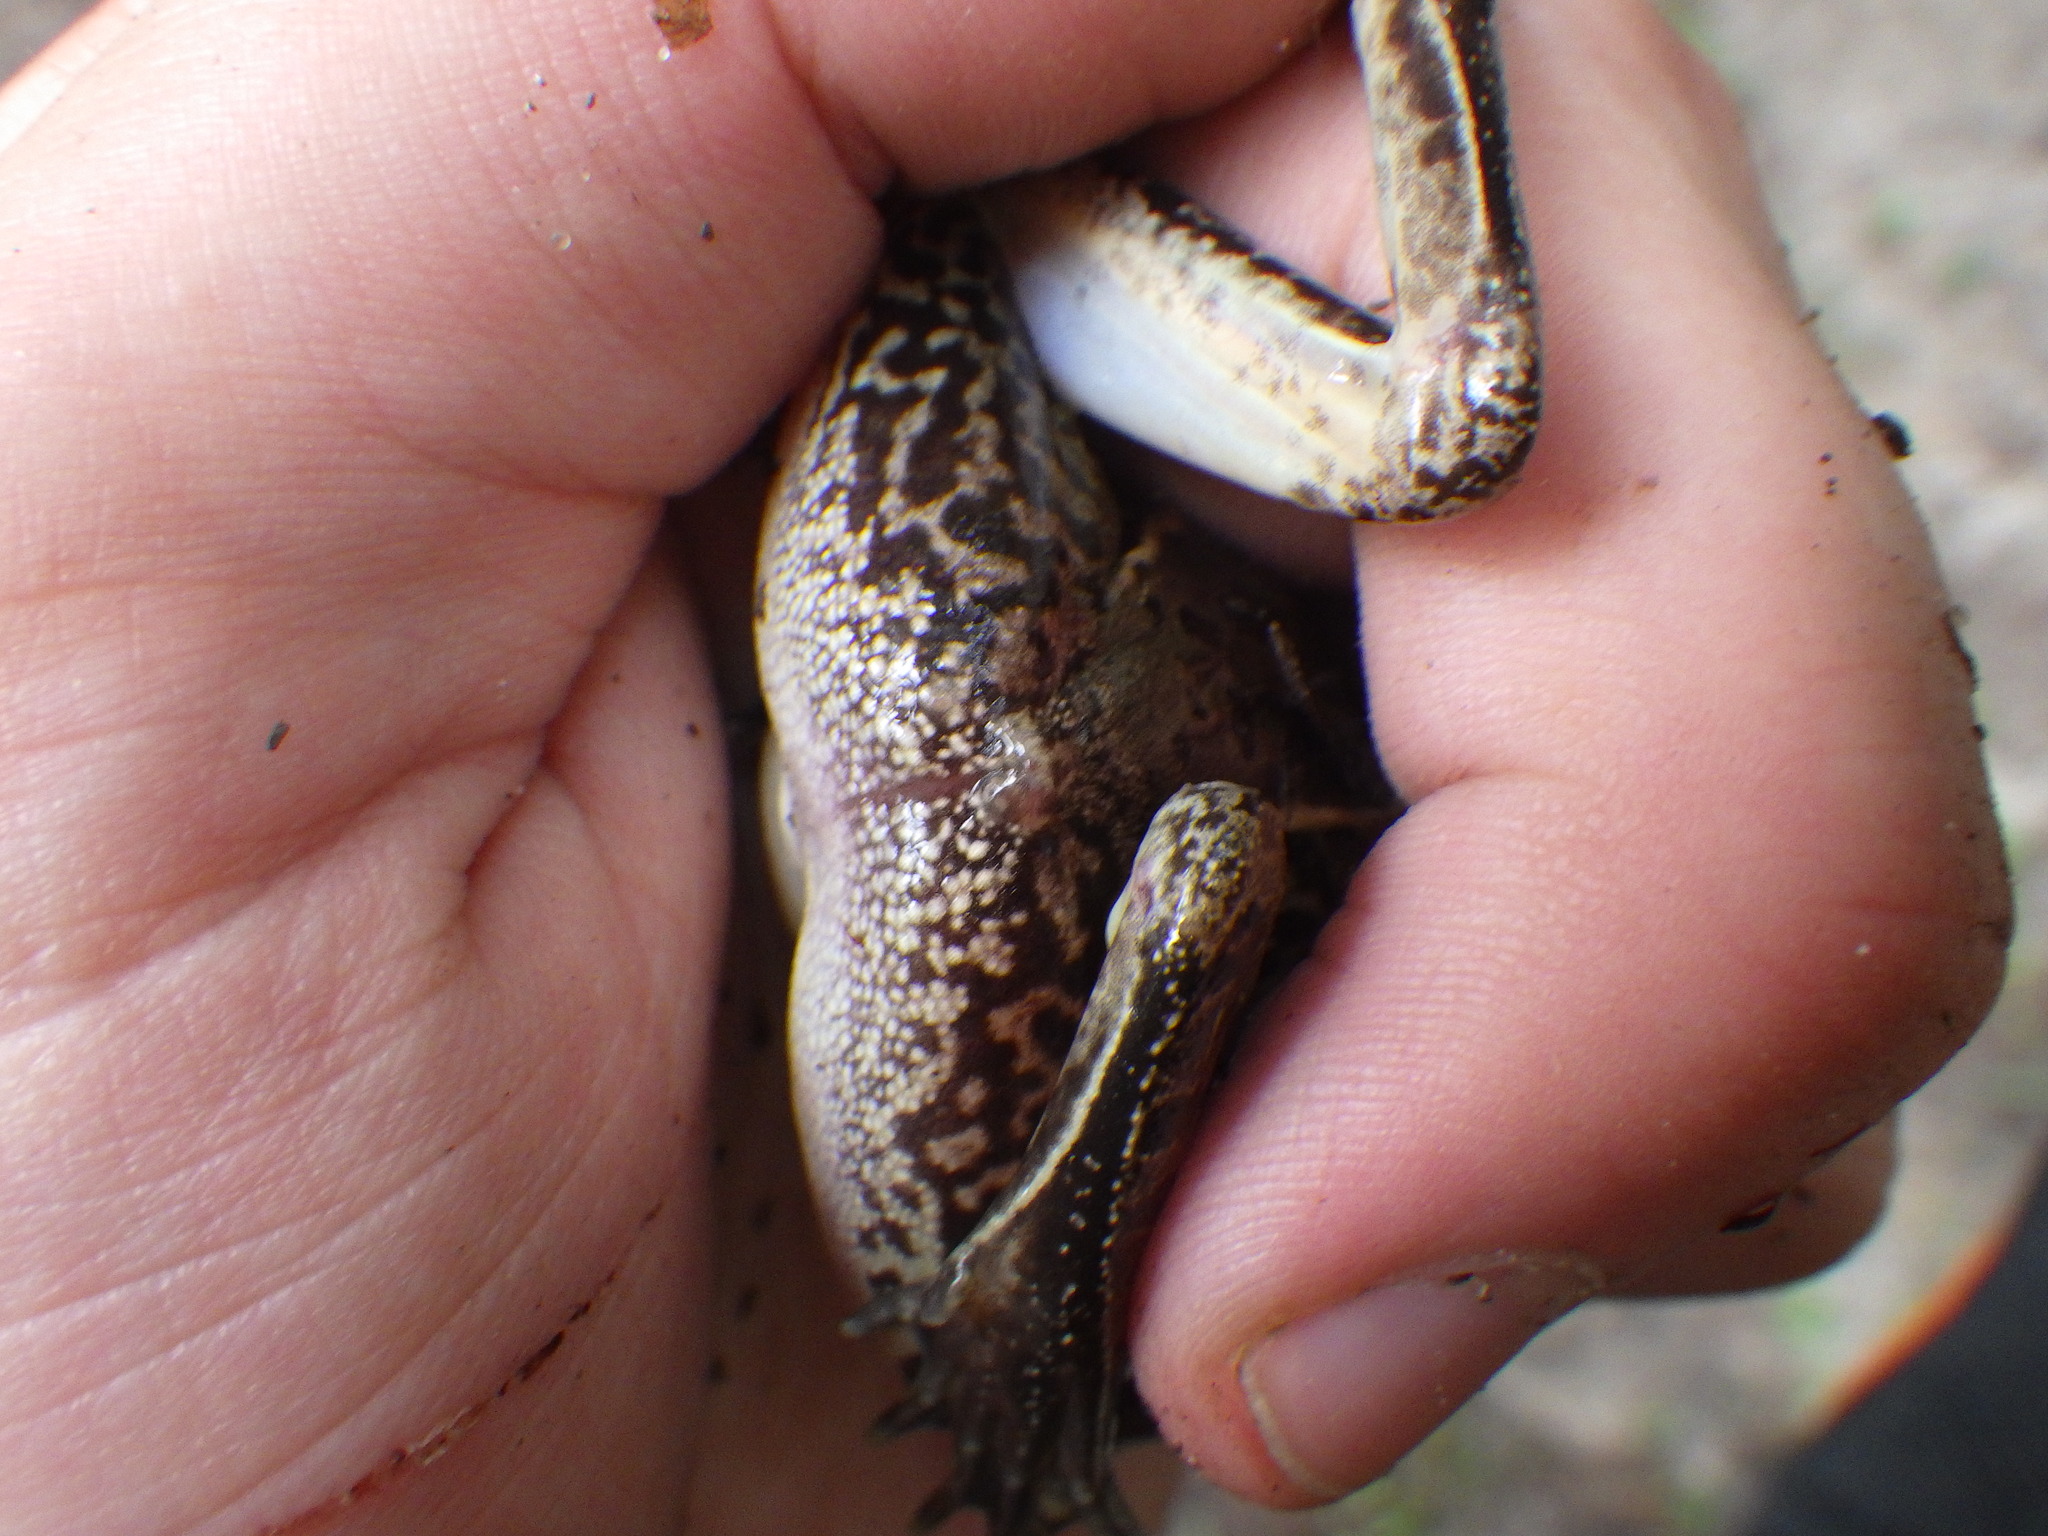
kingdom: Animalia
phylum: Chordata
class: Amphibia
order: Anura
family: Ranidae
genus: Lithobates
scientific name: Lithobates sphenocephalus
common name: Southern leopard frog
